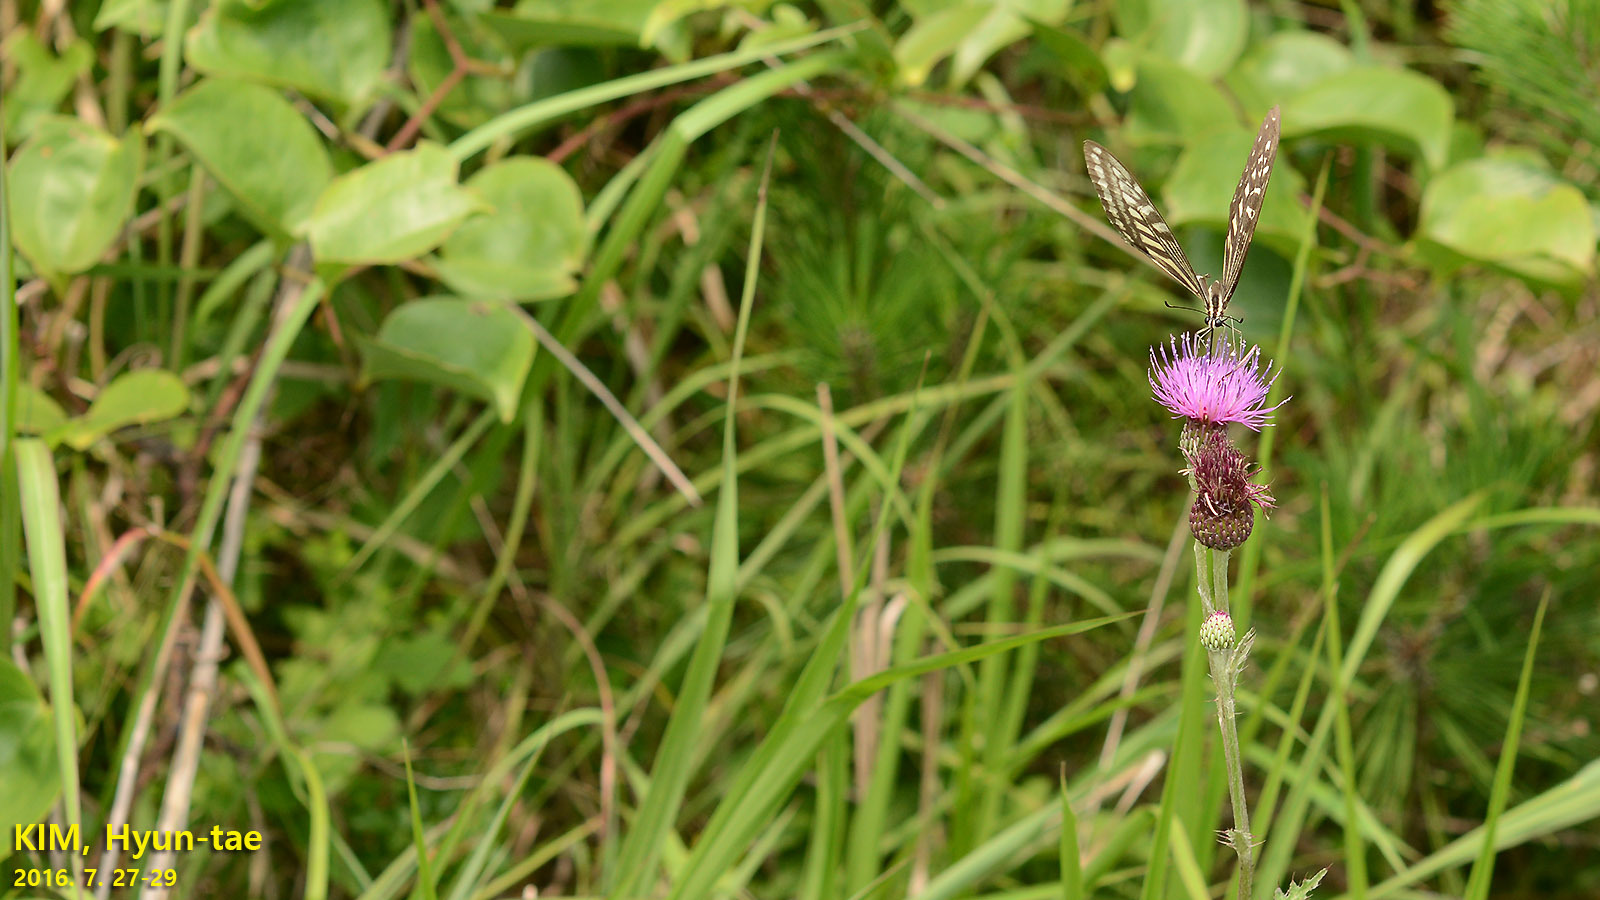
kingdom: Animalia
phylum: Arthropoda
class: Insecta
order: Lepidoptera
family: Papilionidae
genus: Papilio
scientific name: Papilio xuthus
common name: Asian swallowtail
